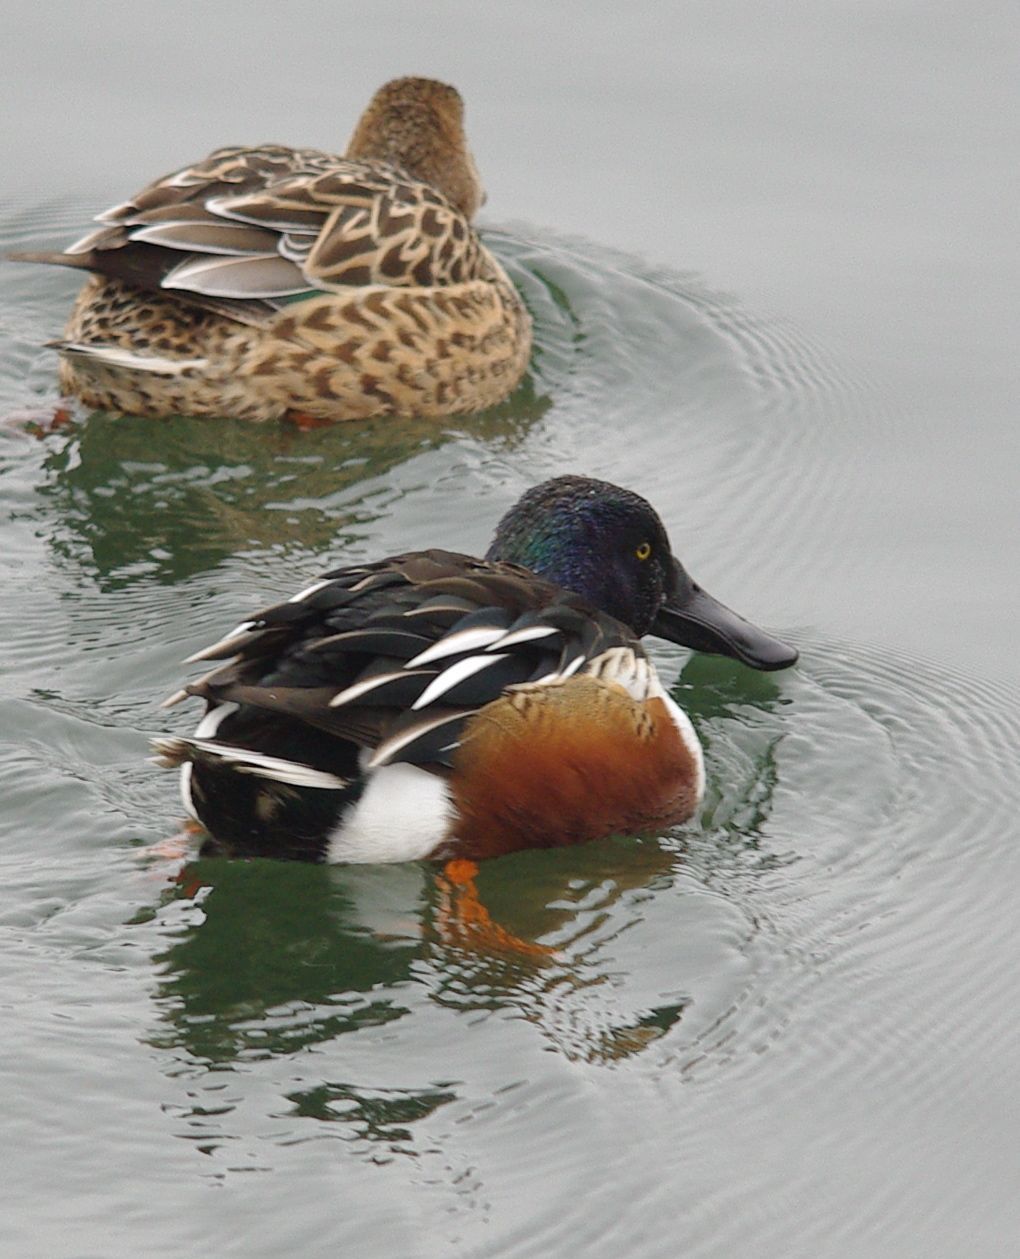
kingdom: Animalia
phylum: Chordata
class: Aves
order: Anseriformes
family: Anatidae
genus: Spatula
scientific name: Spatula clypeata
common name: Northern shoveler
